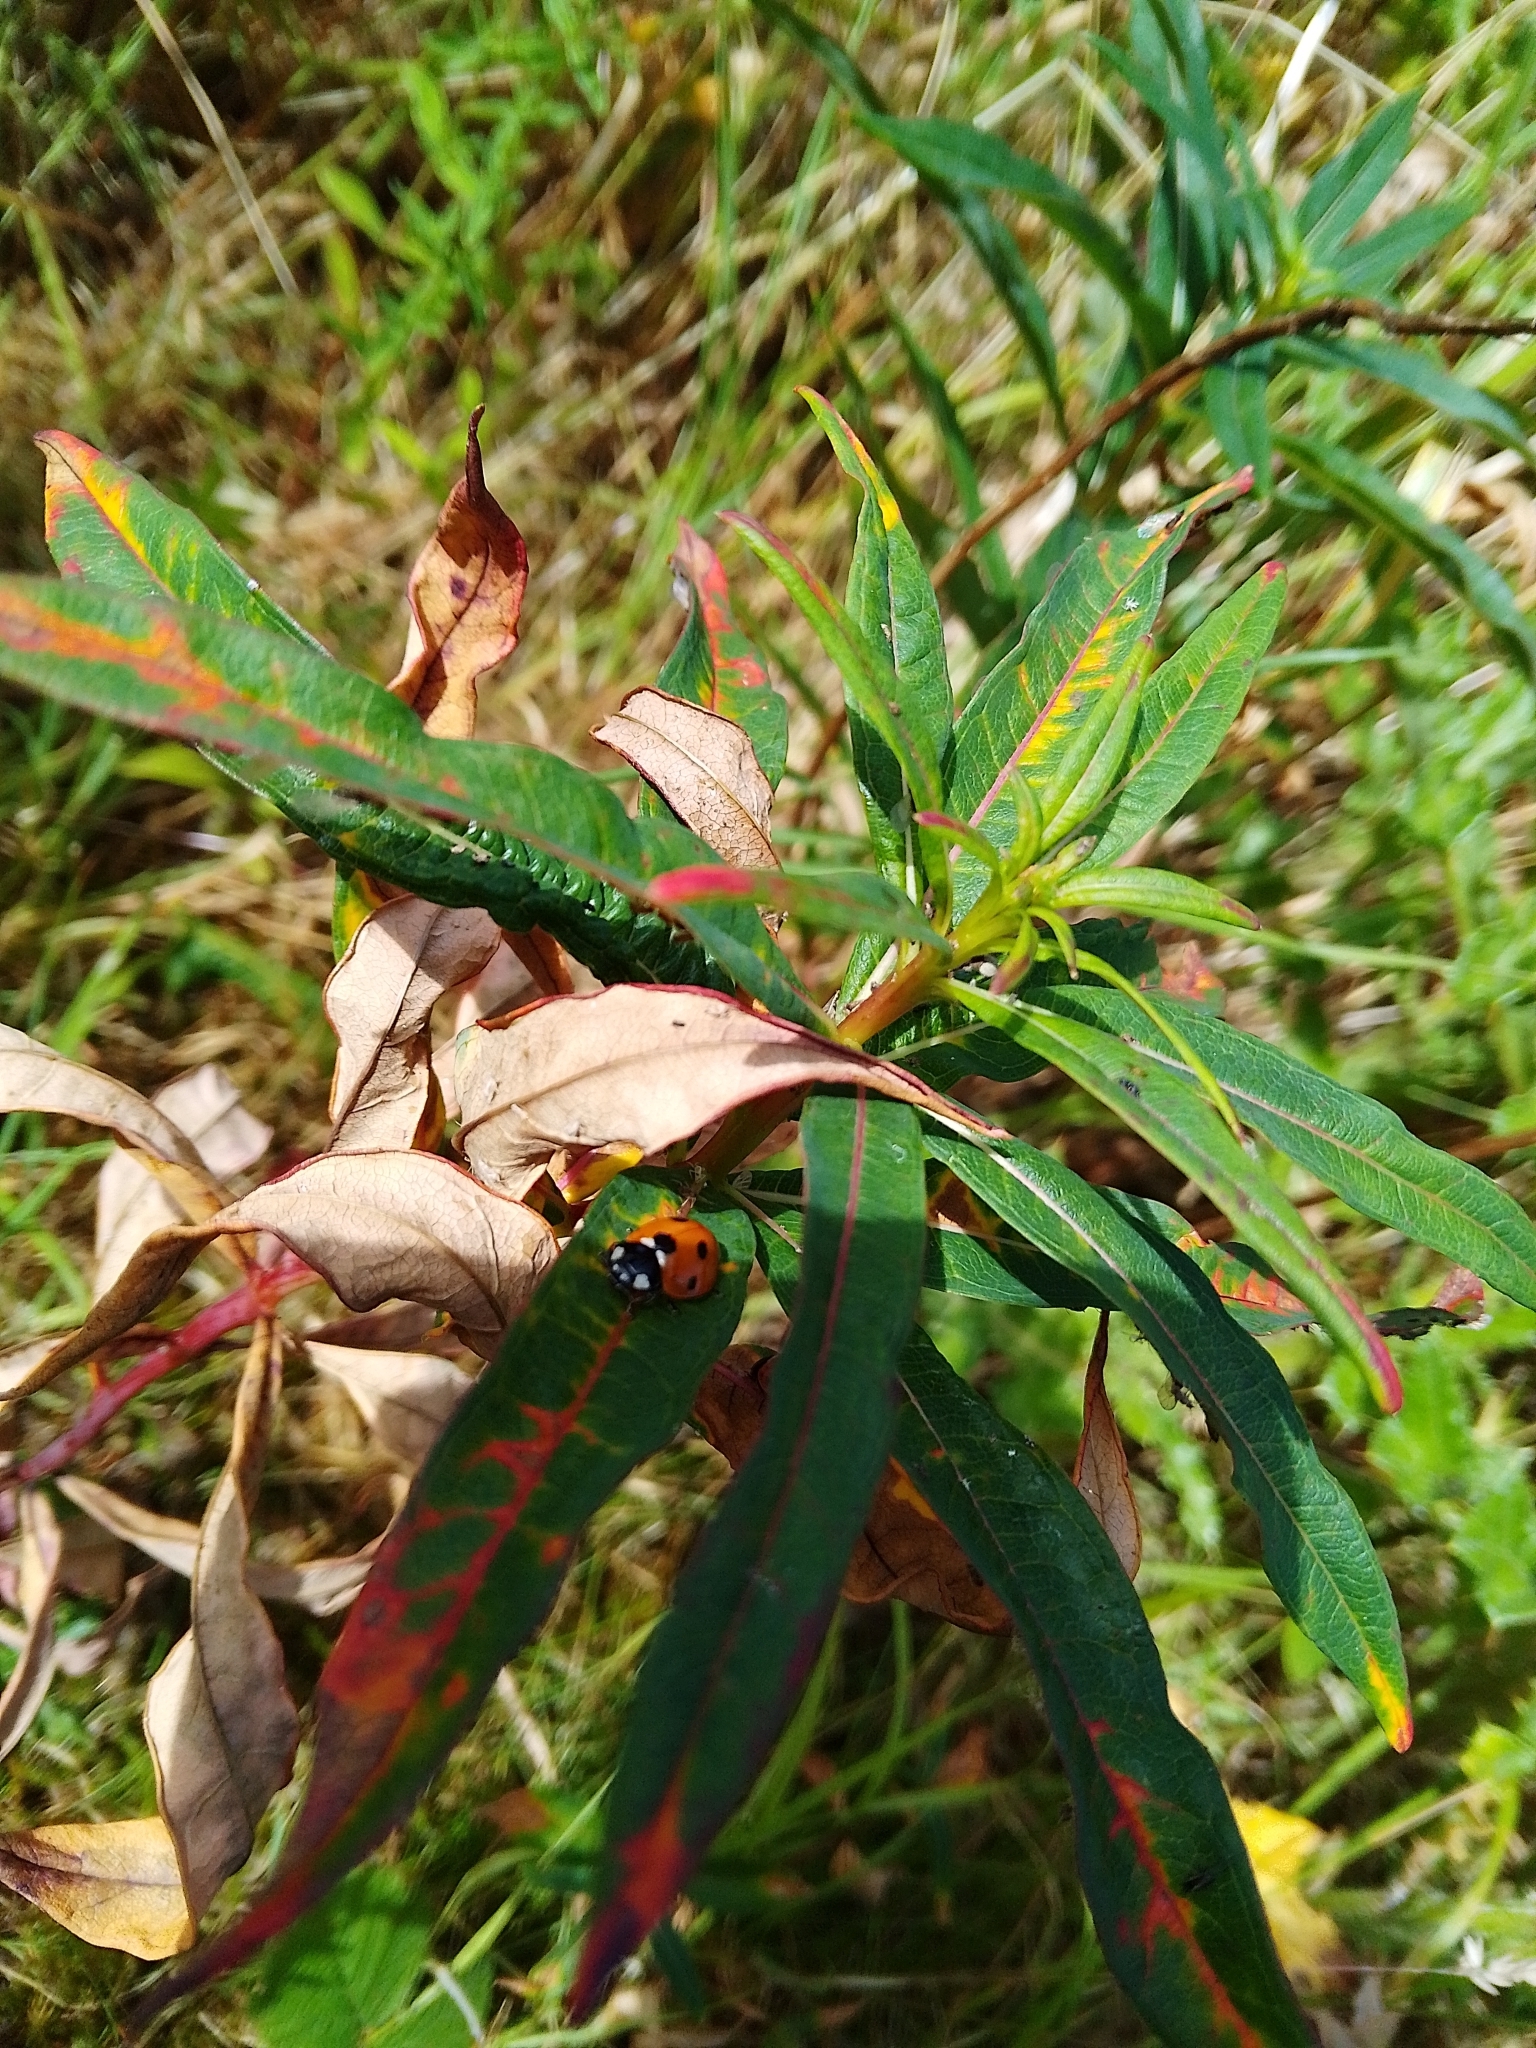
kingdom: Animalia
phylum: Arthropoda
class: Insecta
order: Coleoptera
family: Coccinellidae
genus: Coccinella
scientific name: Coccinella septempunctata
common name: Sevenspotted lady beetle
